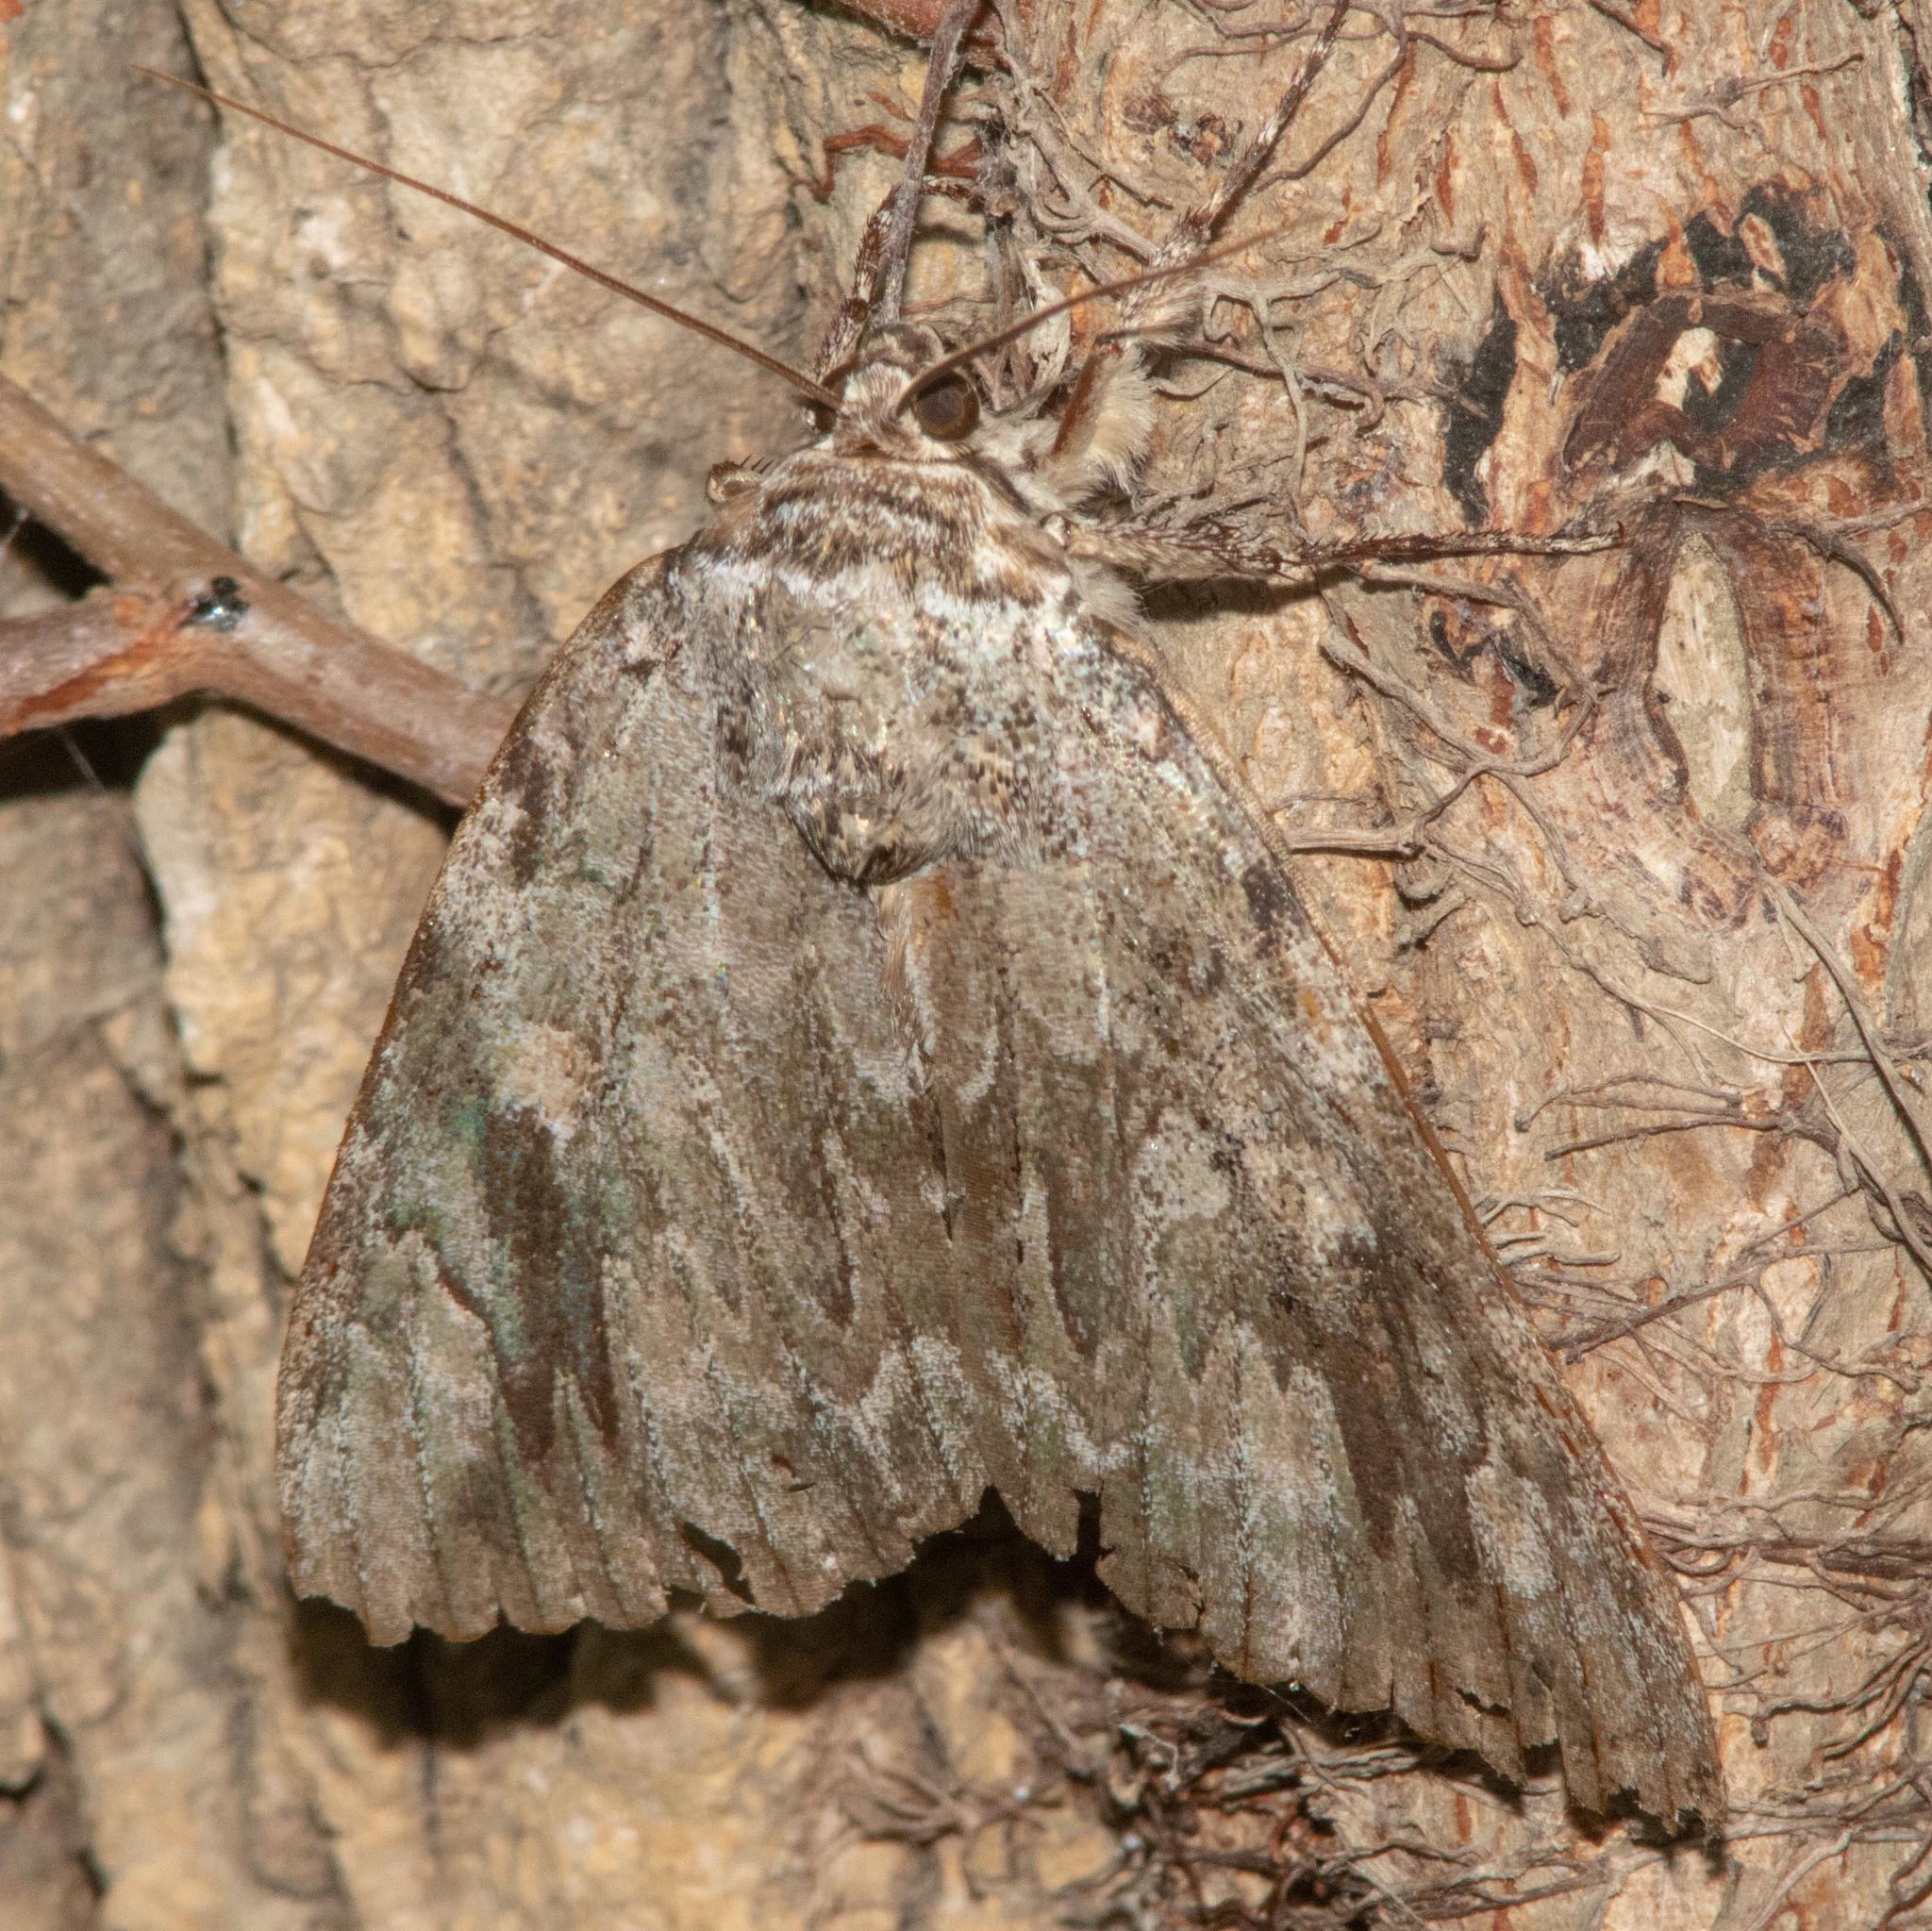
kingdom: Animalia
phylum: Arthropoda
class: Insecta
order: Lepidoptera
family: Erebidae
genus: Catocala
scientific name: Catocala maestosa
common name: Sad underwing
